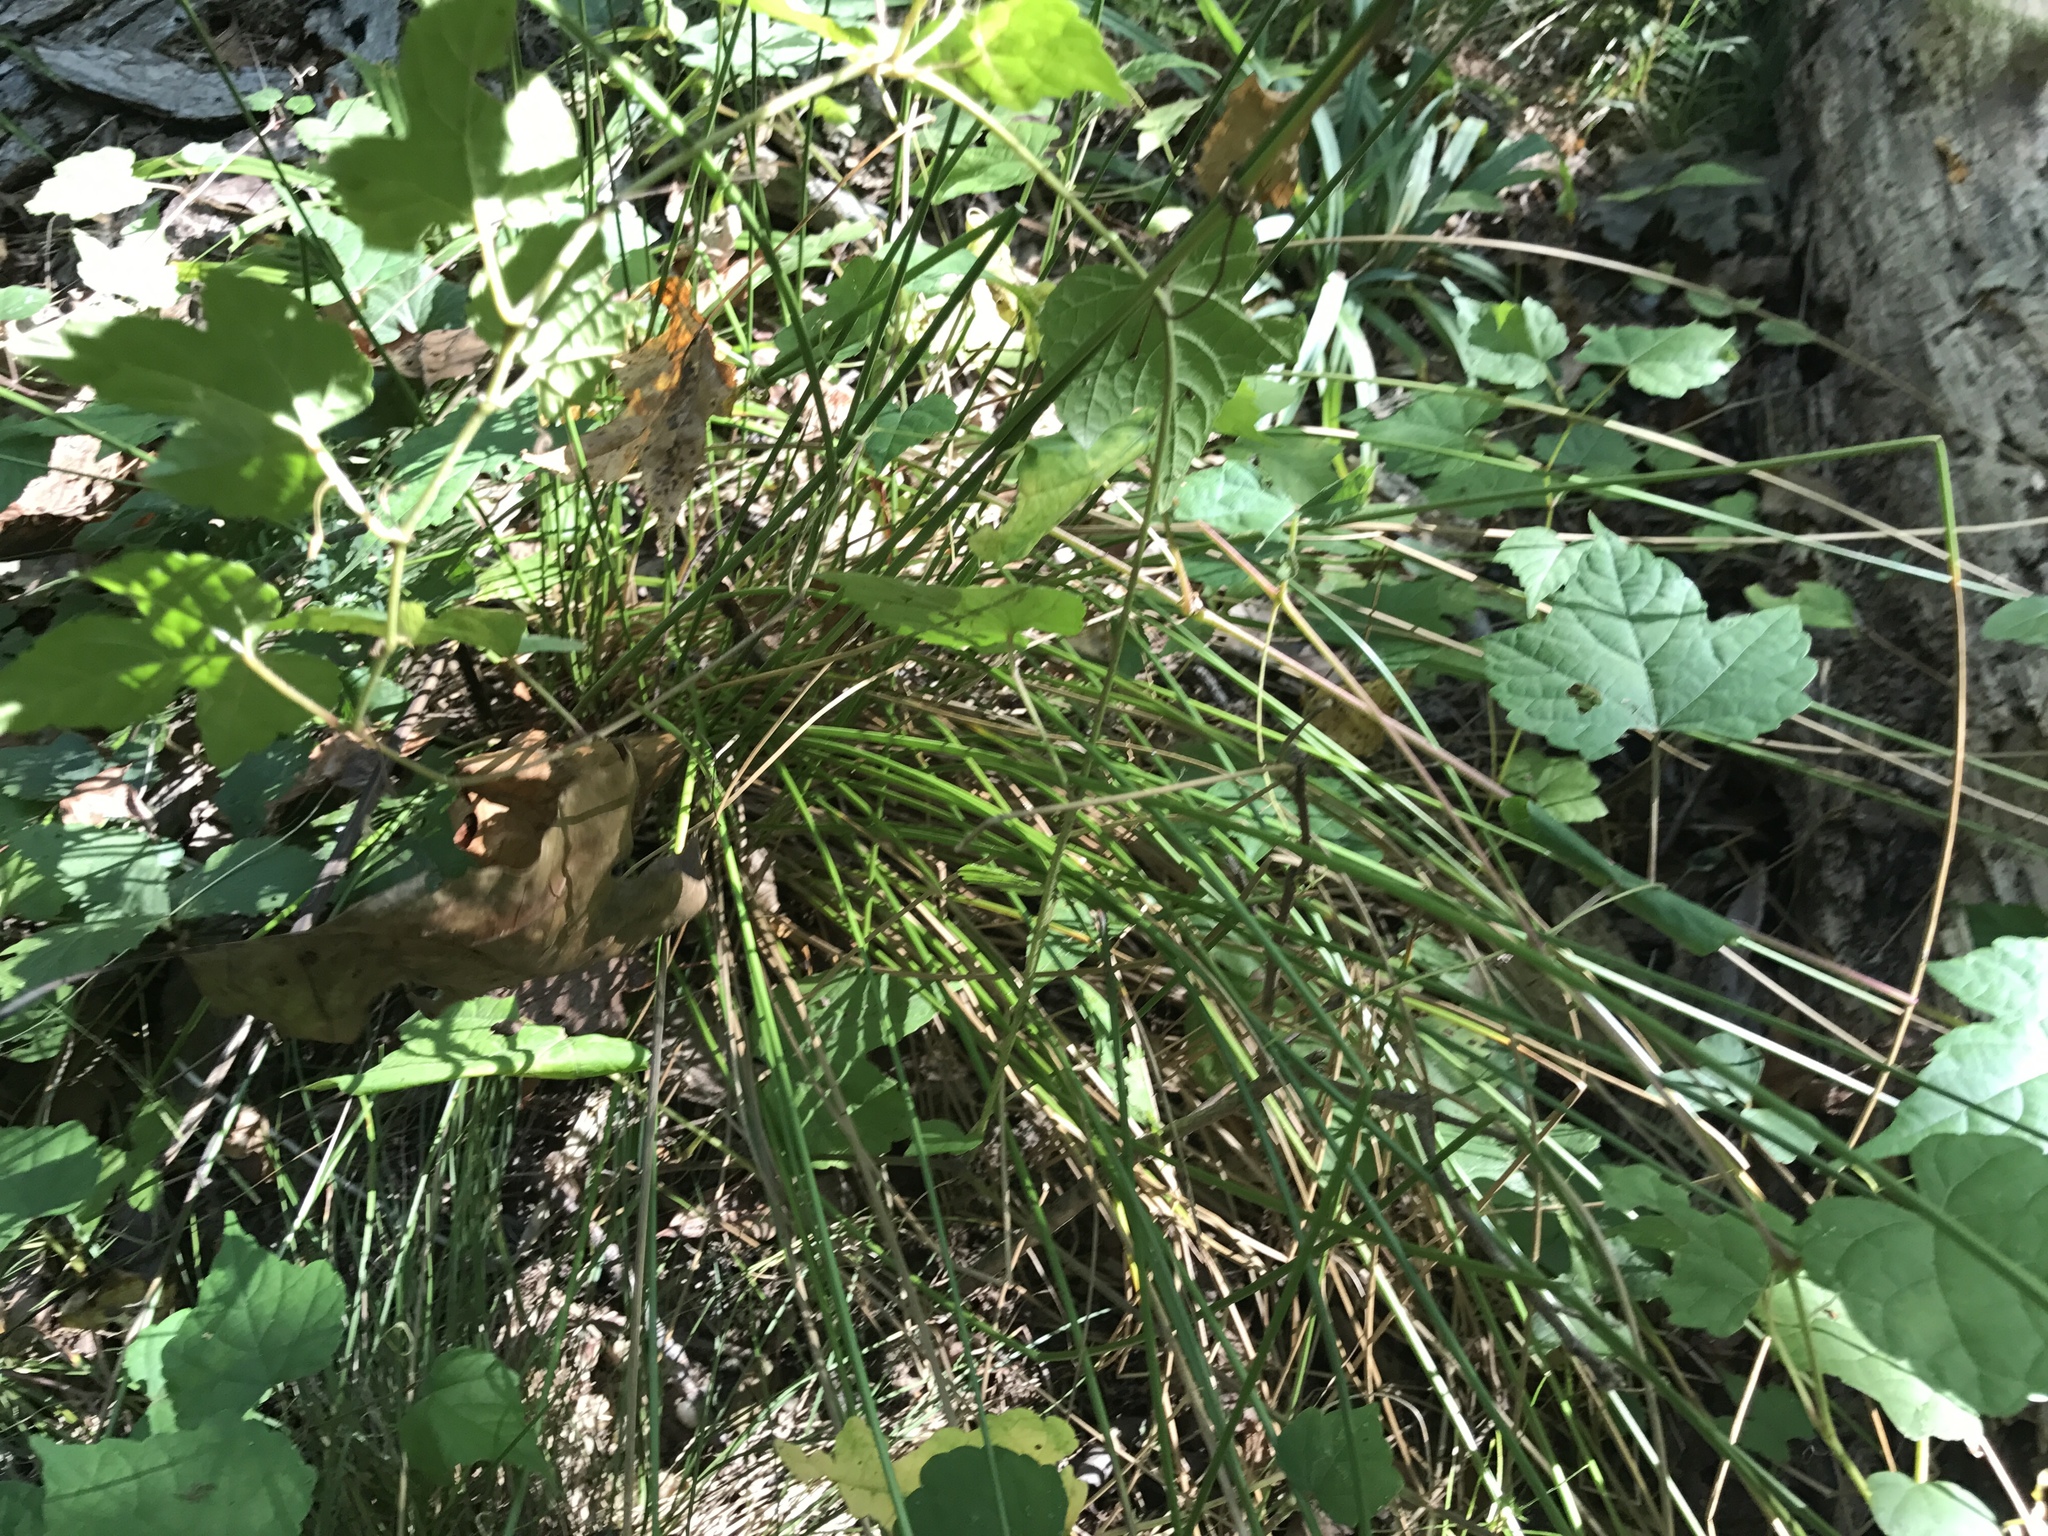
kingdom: Plantae
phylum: Tracheophyta
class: Liliopsida
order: Poales
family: Juncaceae
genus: Juncus
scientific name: Juncus effusus
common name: Soft rush
